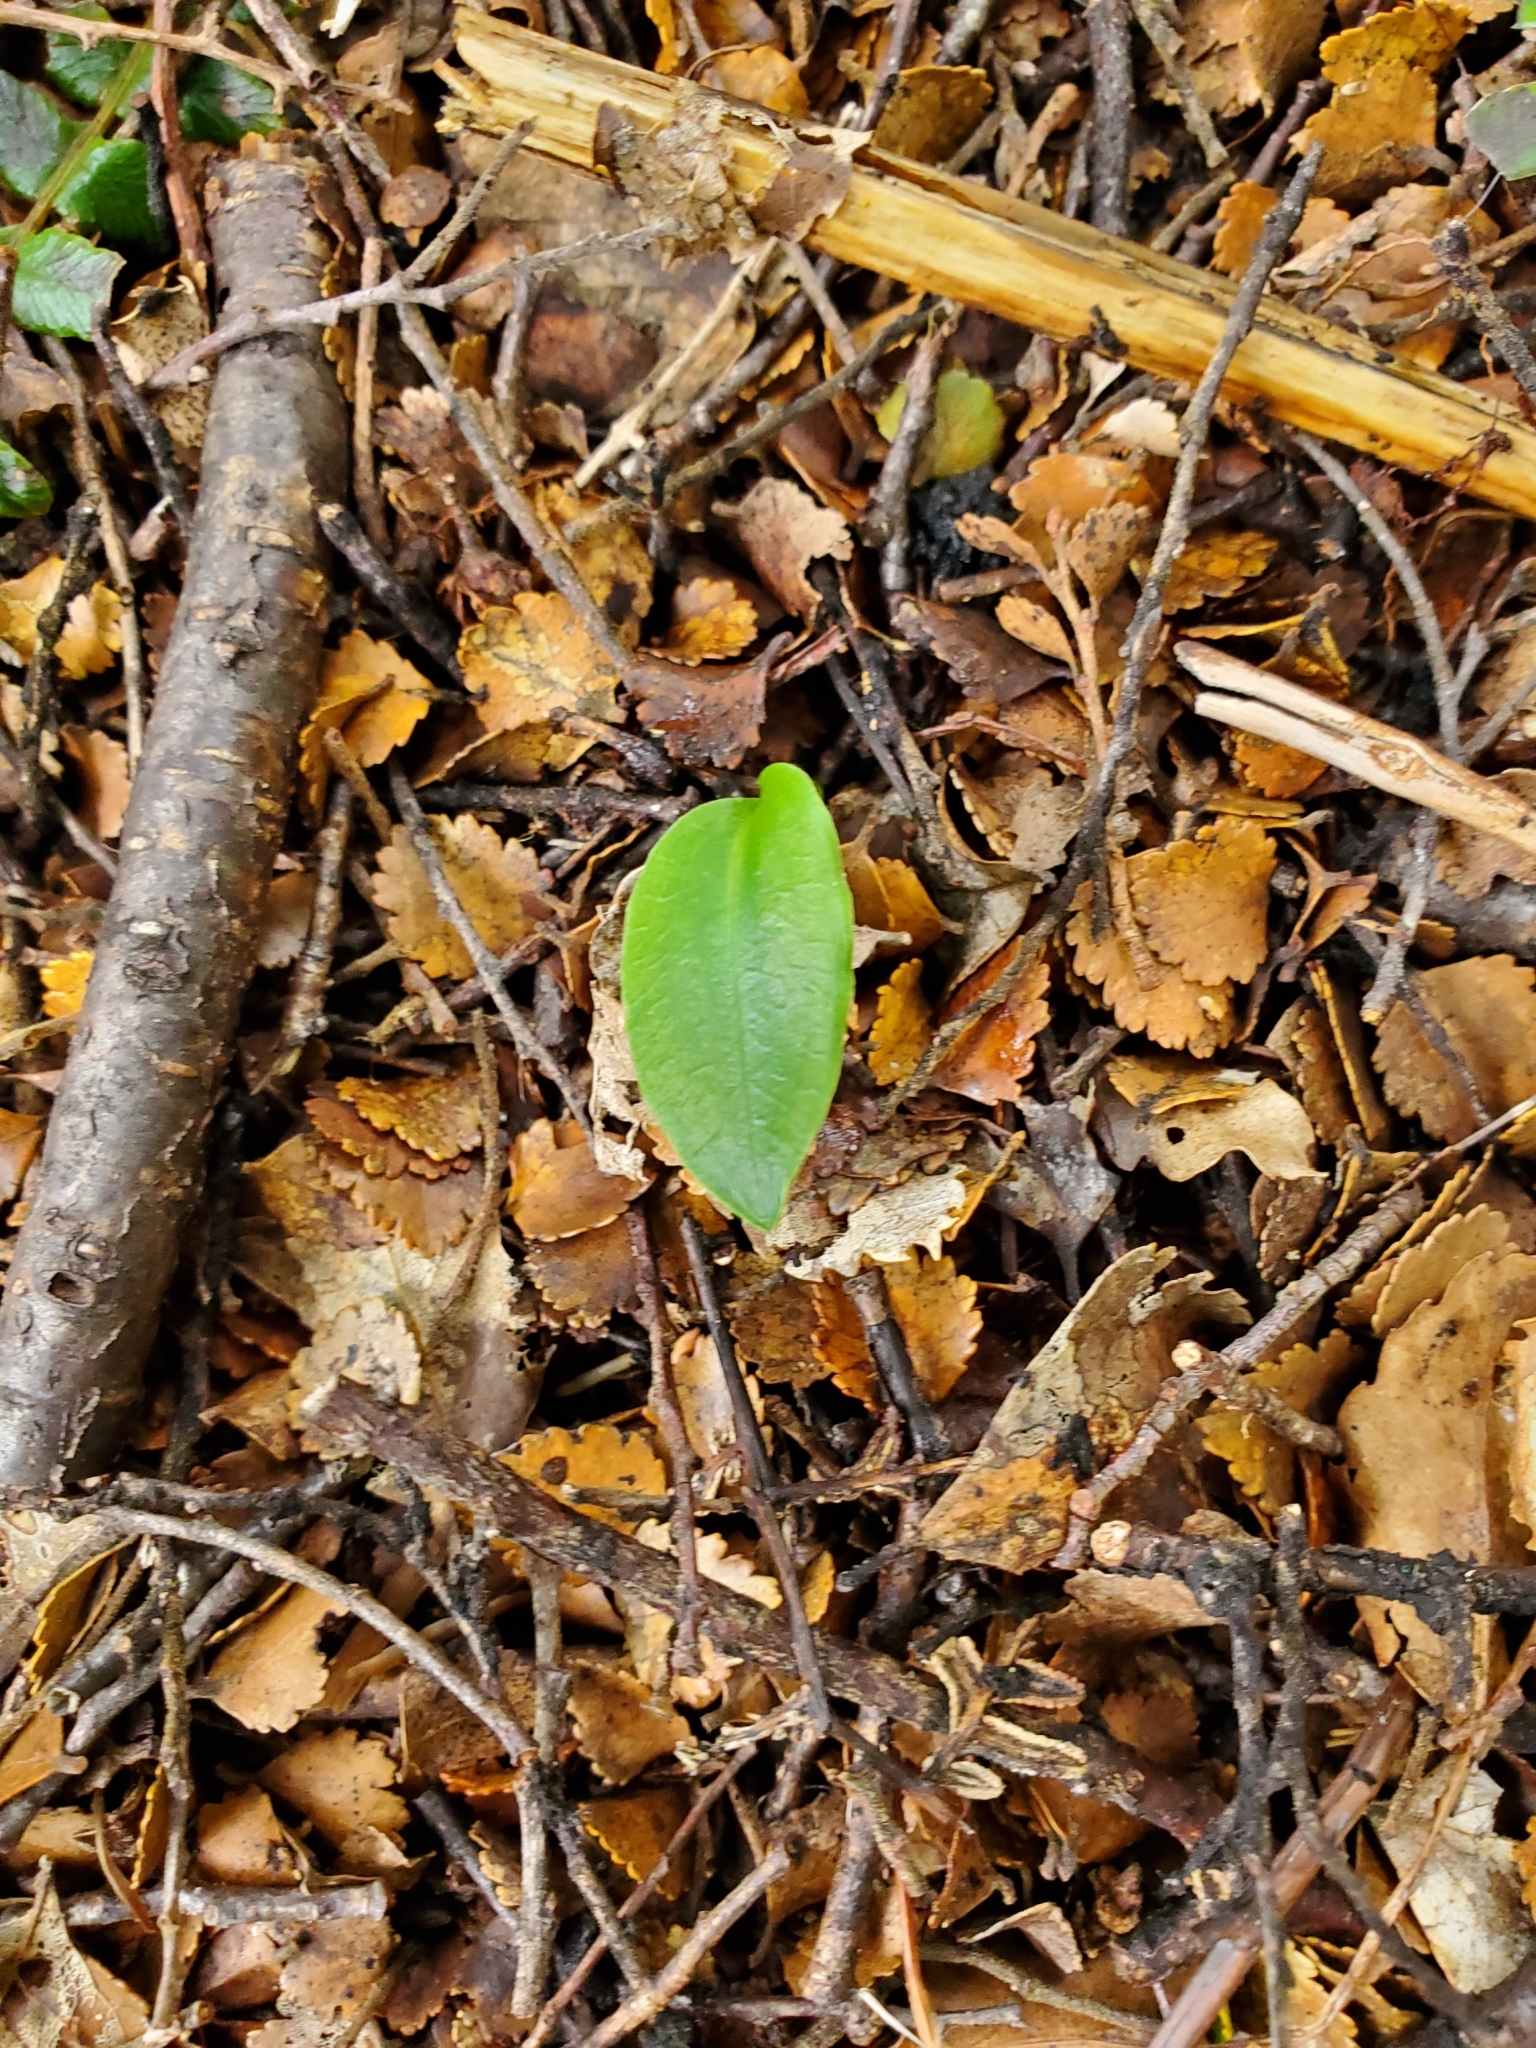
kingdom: Plantae
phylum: Tracheophyta
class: Liliopsida
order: Asparagales
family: Orchidaceae
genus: Adenochilus
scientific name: Adenochilus gracilis
